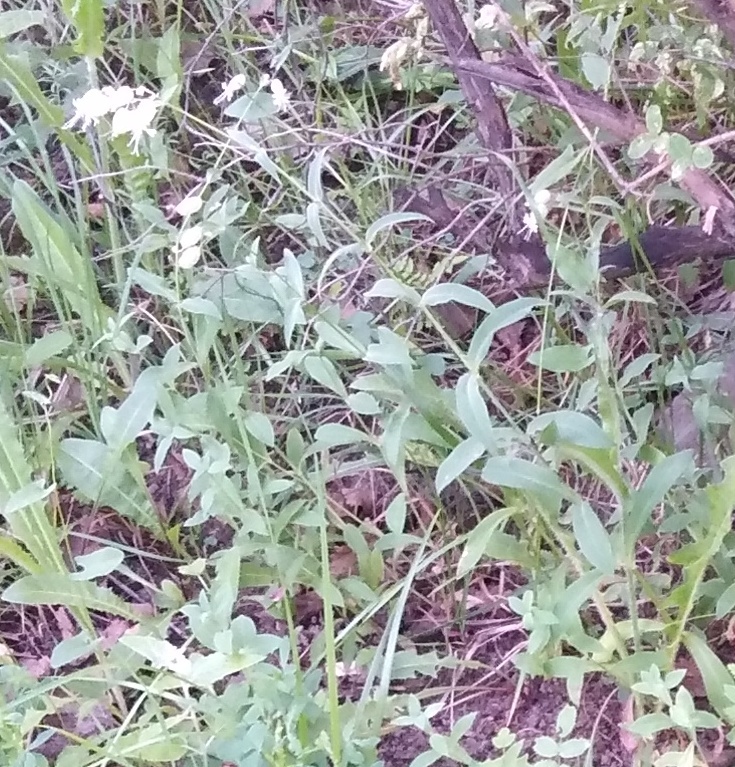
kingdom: Plantae
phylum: Tracheophyta
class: Magnoliopsida
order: Caryophyllales
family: Caryophyllaceae
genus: Silene
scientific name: Silene vulgaris
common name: Bladder campion
